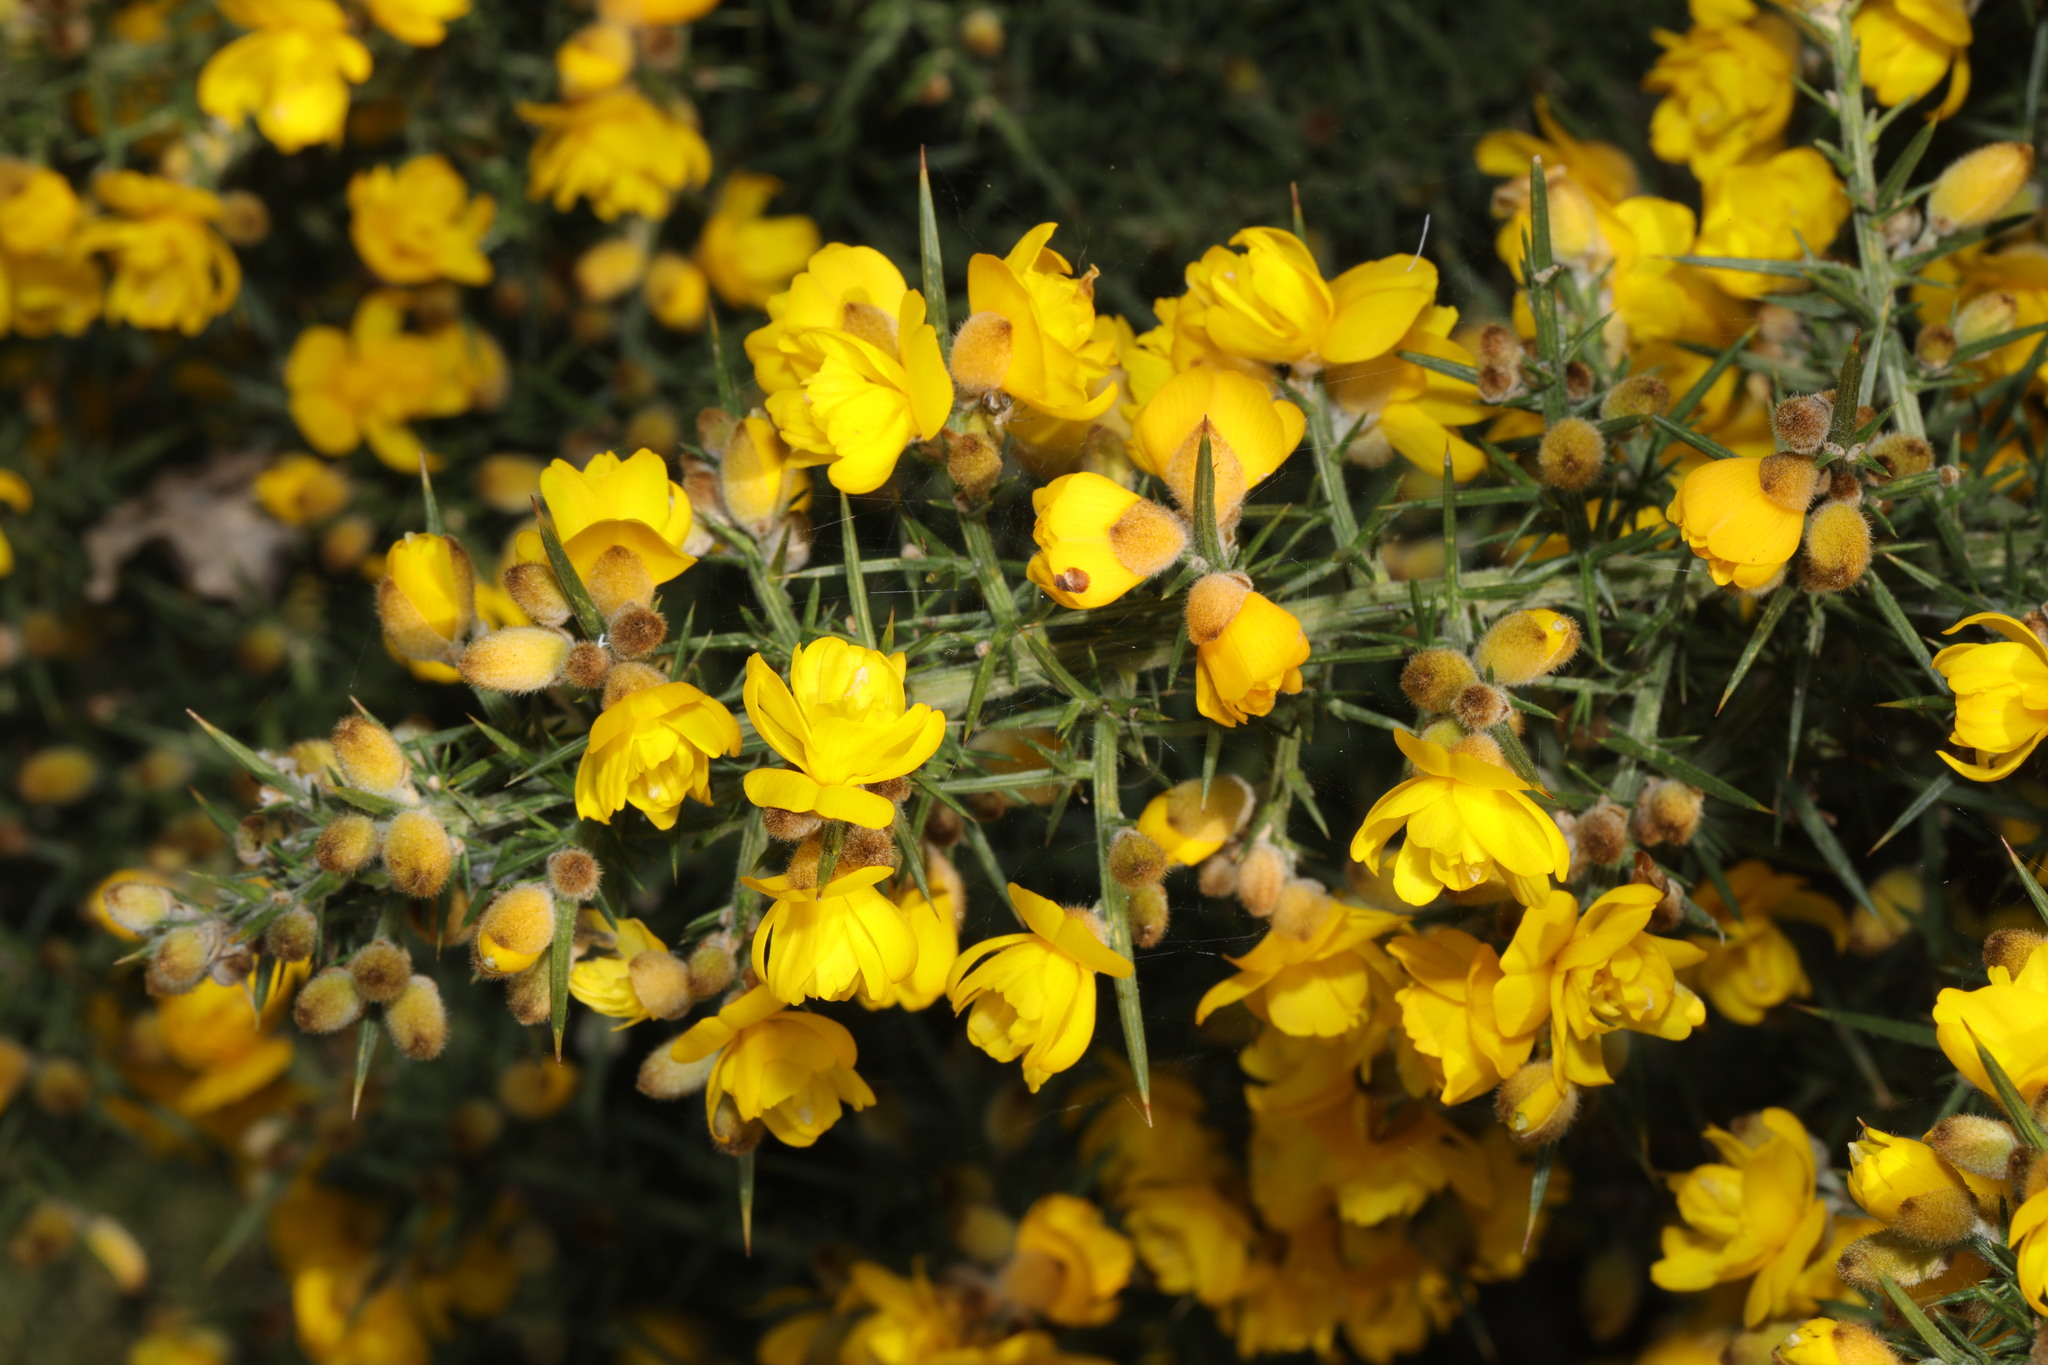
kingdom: Plantae
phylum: Tracheophyta
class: Magnoliopsida
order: Fabales
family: Fabaceae
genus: Ulex
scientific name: Ulex europaeus
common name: Common gorse
